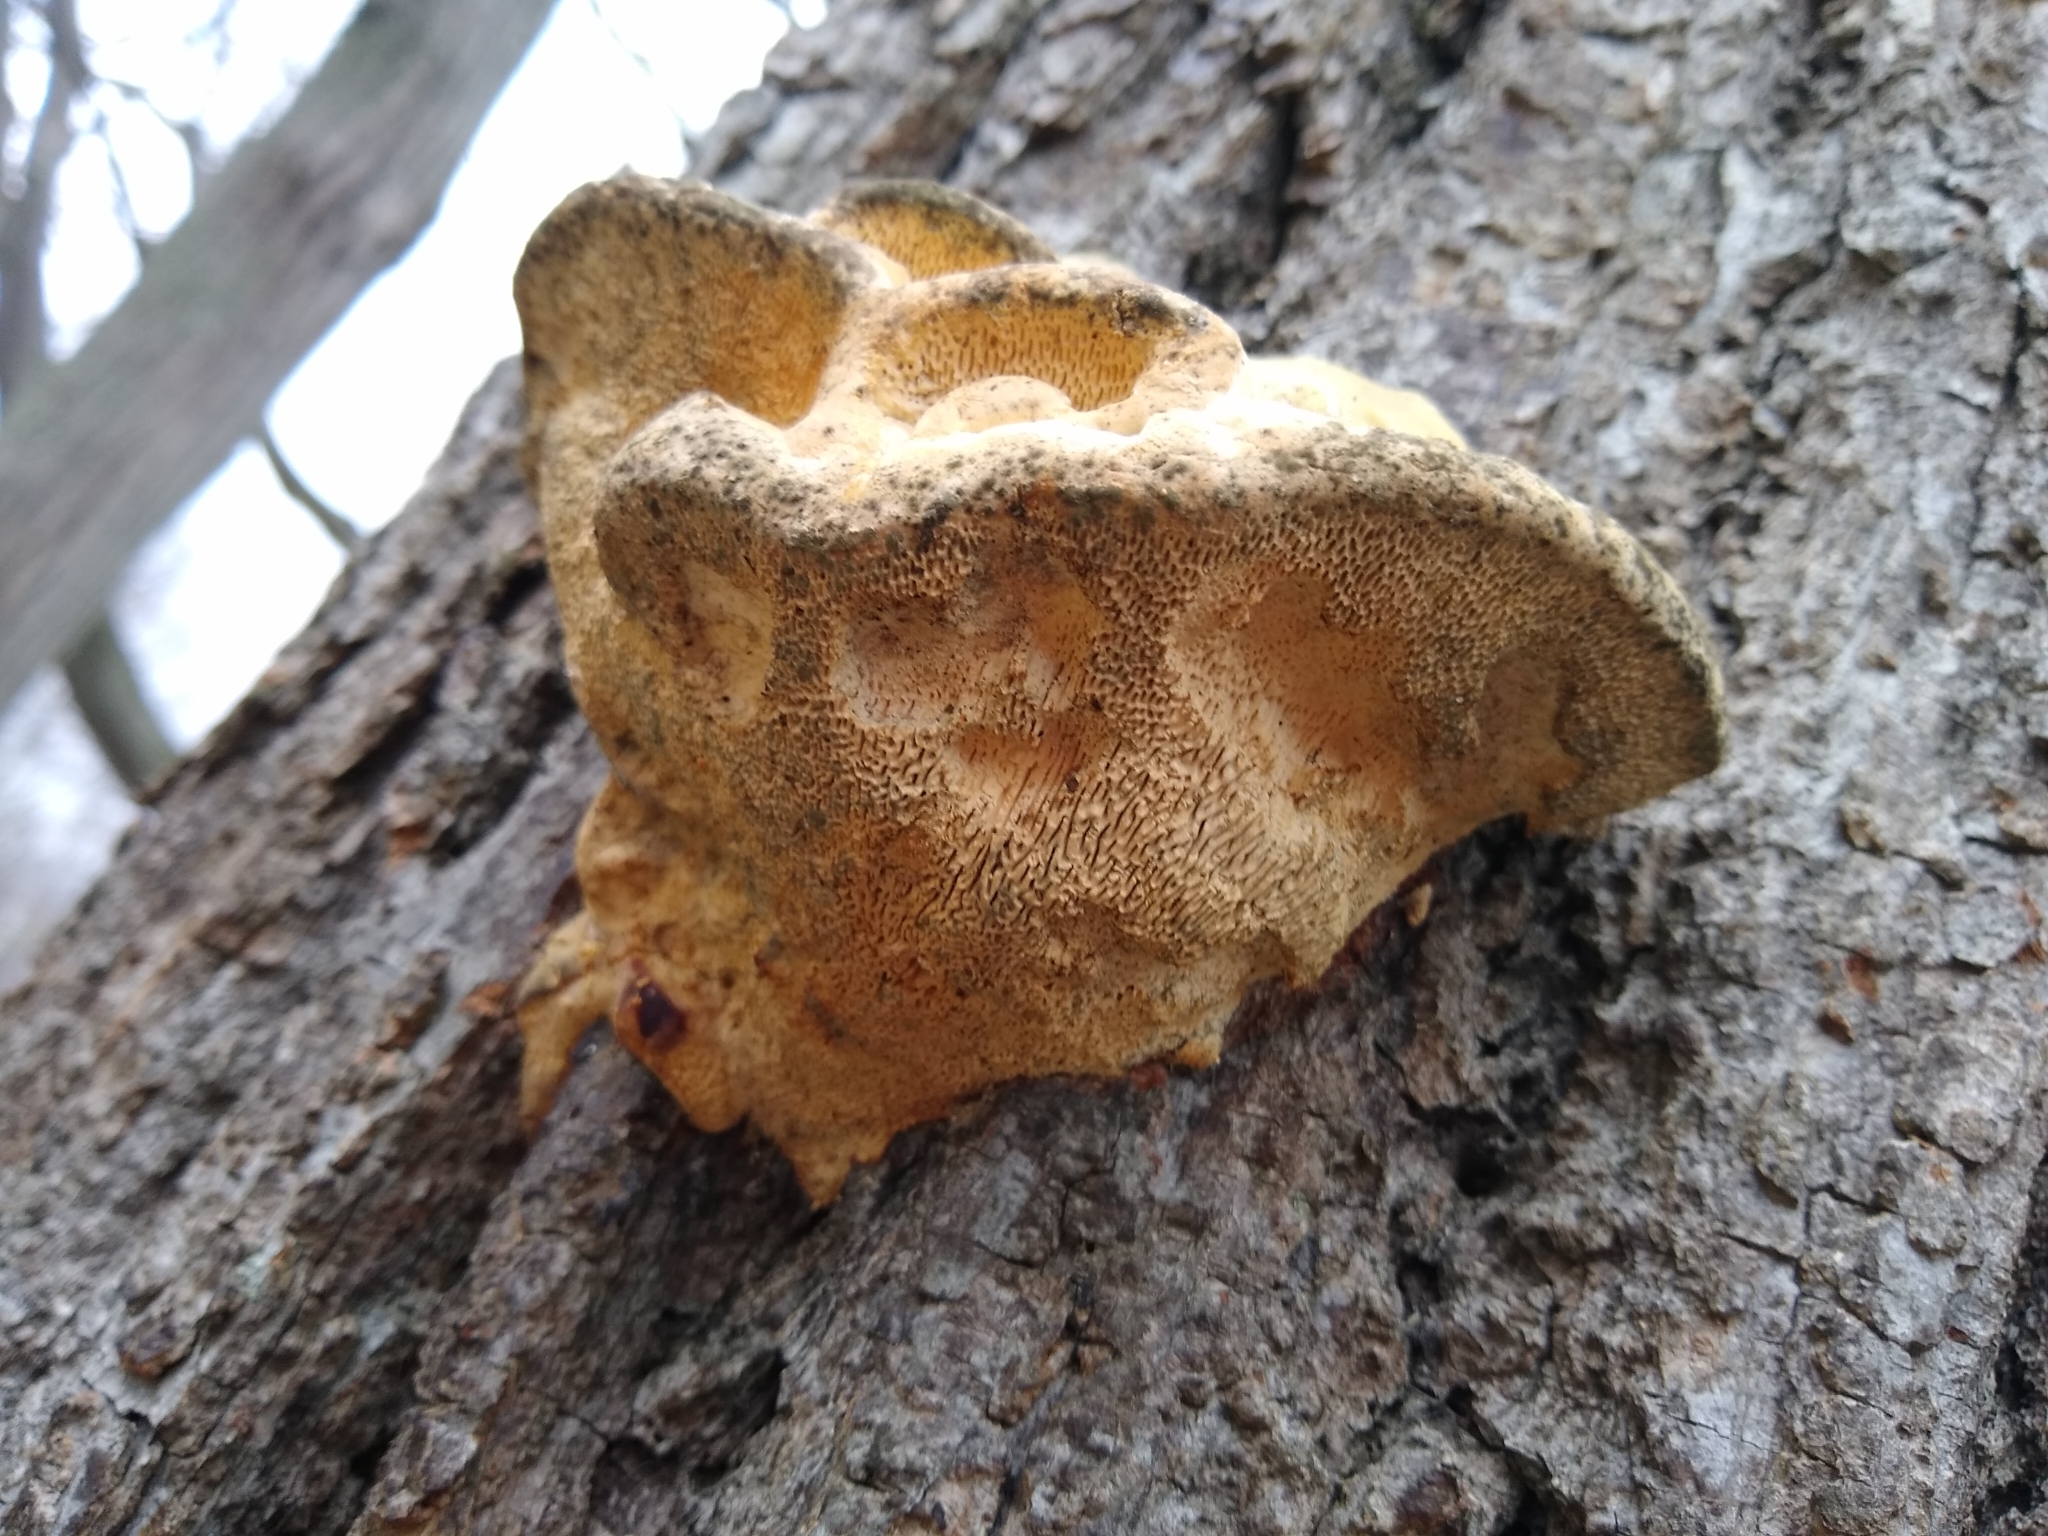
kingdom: Fungi
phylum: Basidiomycota
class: Agaricomycetes
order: Polyporales
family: Polyporaceae
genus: Trametes
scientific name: Trametes gibbosa
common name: Lumpy bracket
